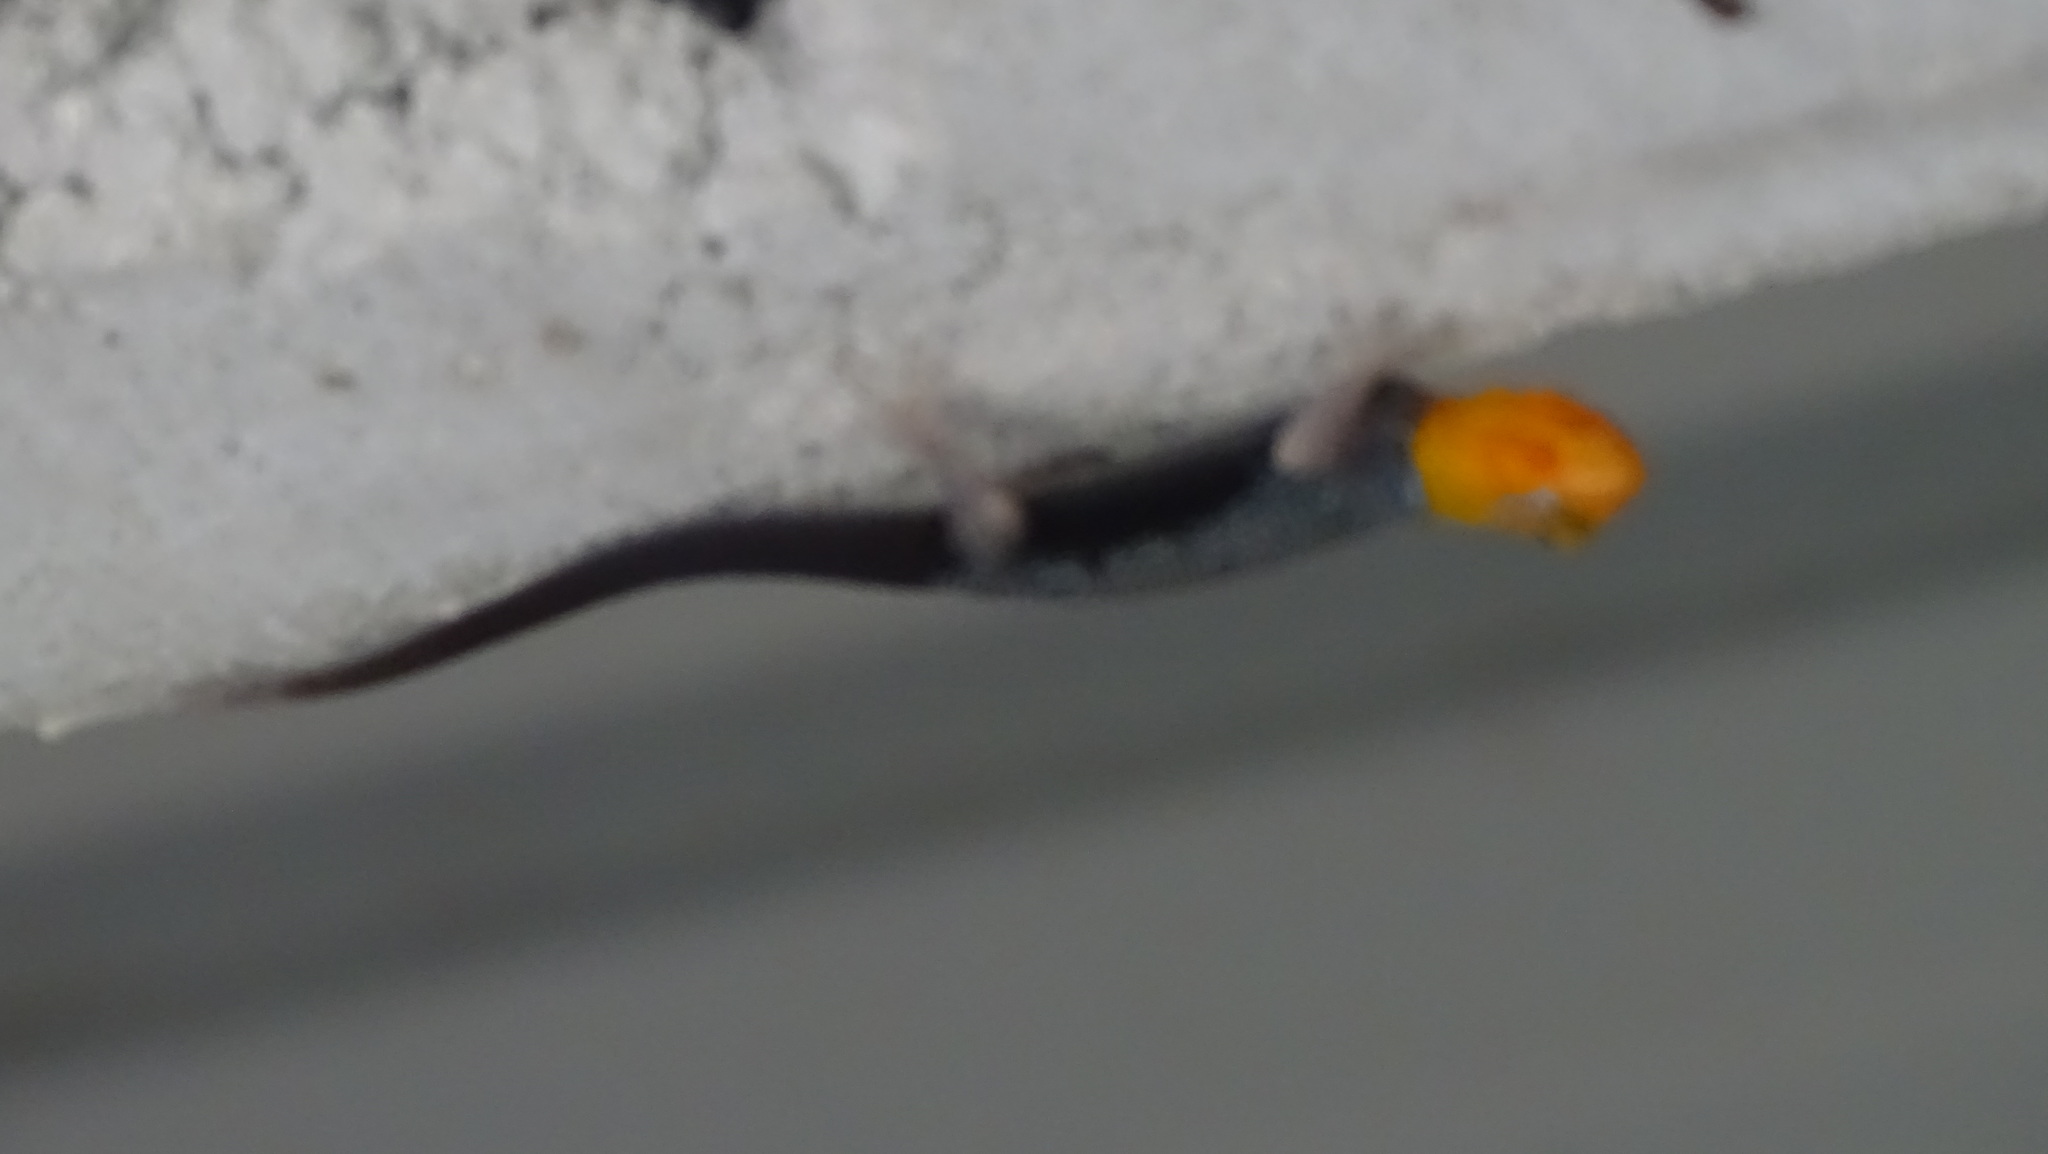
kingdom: Animalia
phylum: Chordata
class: Squamata
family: Sphaerodactylidae
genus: Gonatodes
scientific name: Gonatodes albogularis
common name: Yellow-headed gecko
